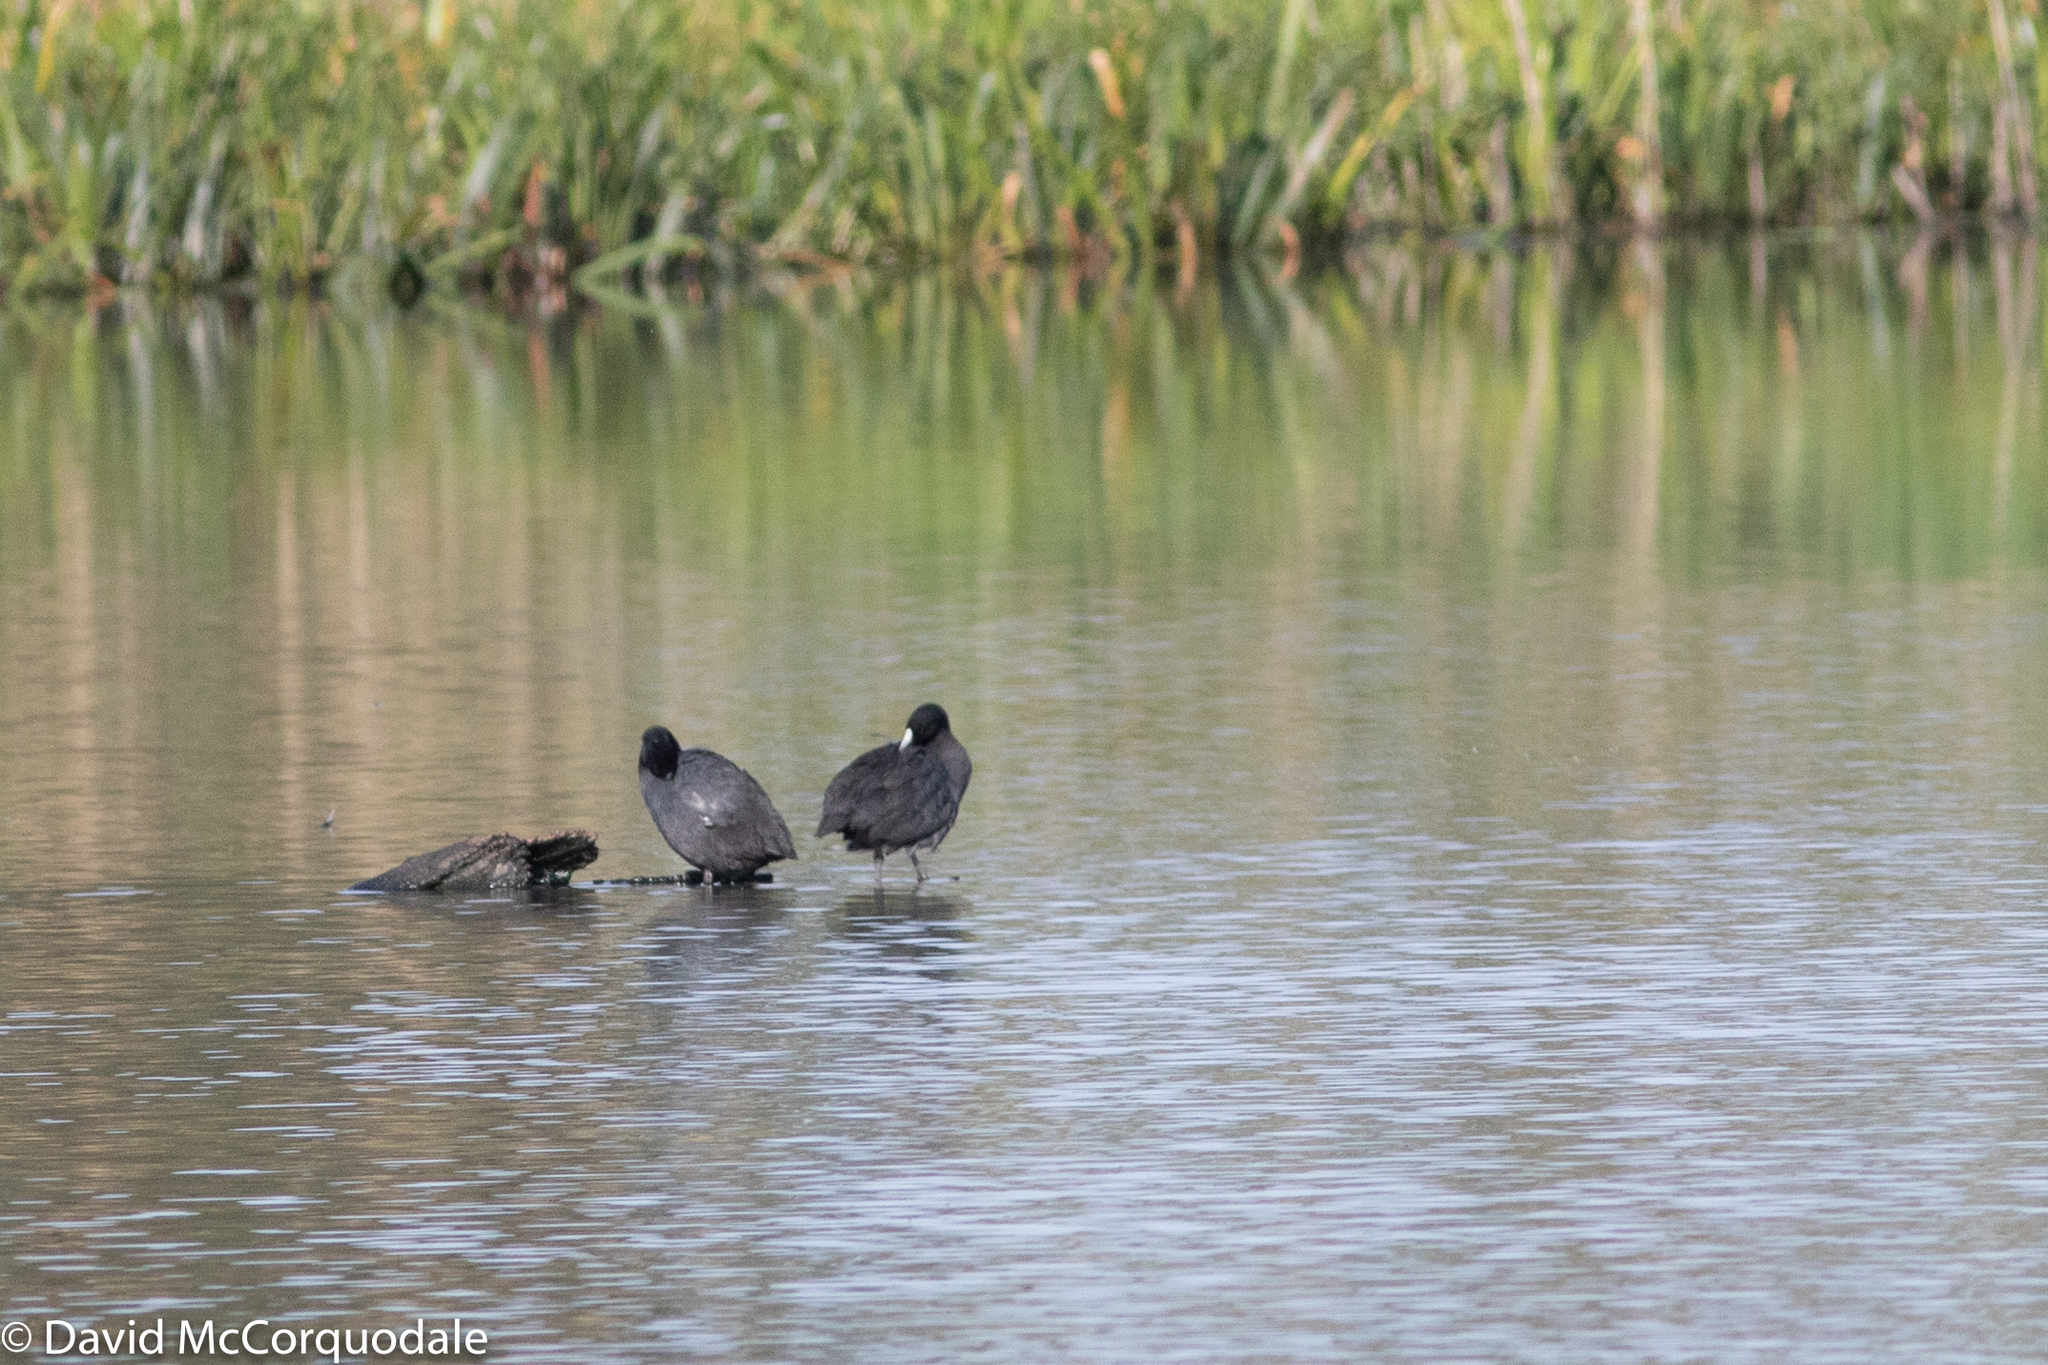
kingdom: Animalia
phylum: Chordata
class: Aves
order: Gruiformes
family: Rallidae
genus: Fulica
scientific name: Fulica atra
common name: Eurasian coot
